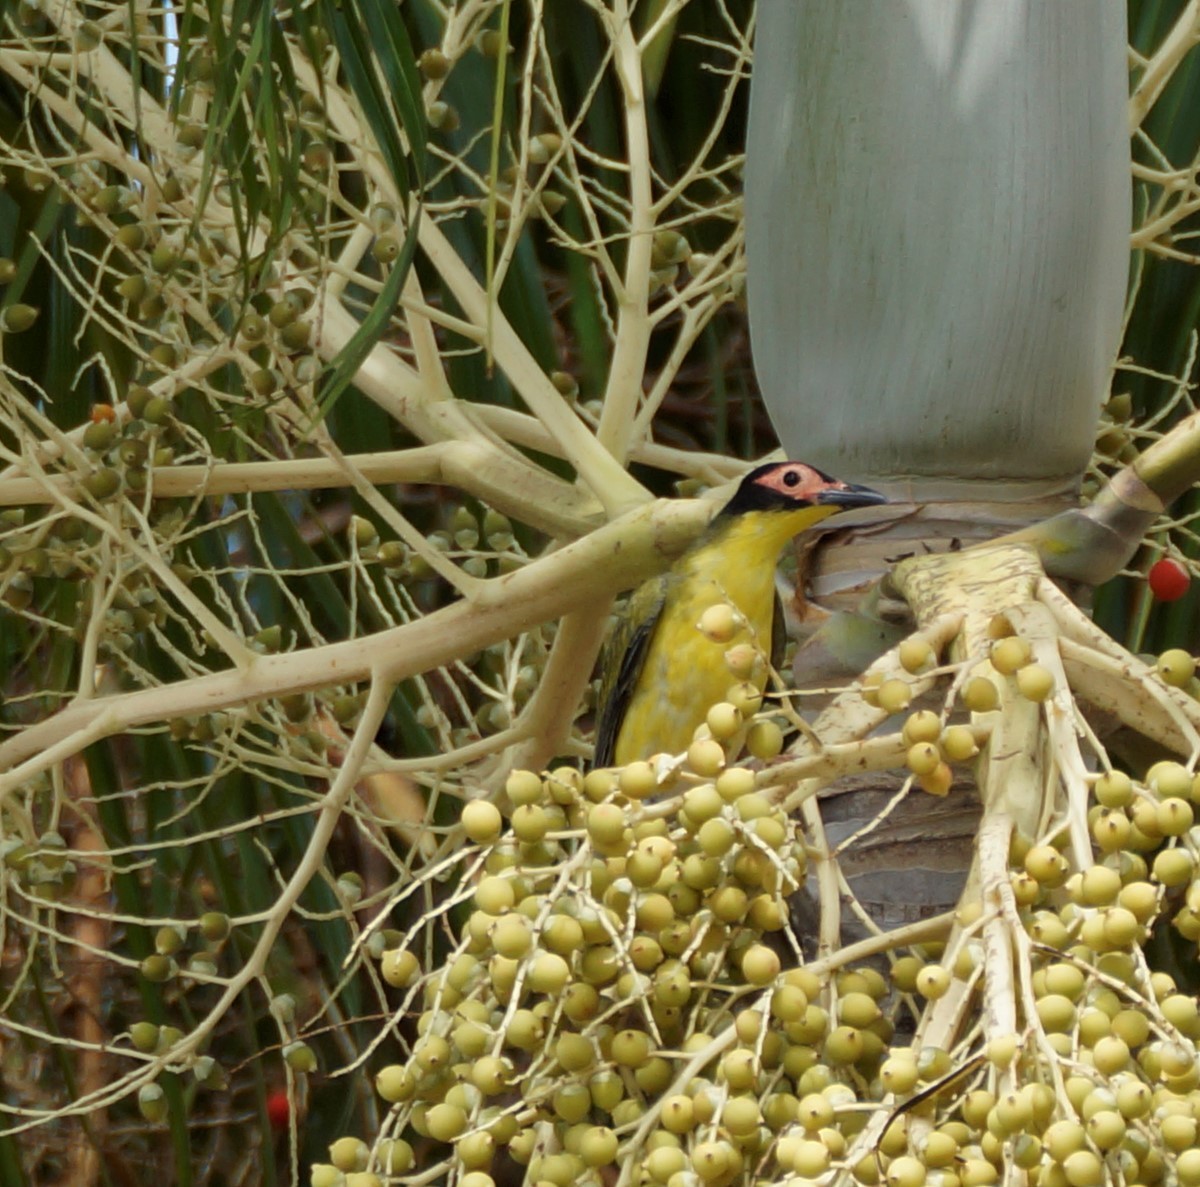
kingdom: Animalia
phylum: Chordata
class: Aves
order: Passeriformes
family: Oriolidae
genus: Sphecotheres
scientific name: Sphecotheres vieilloti
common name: Australasian figbird
